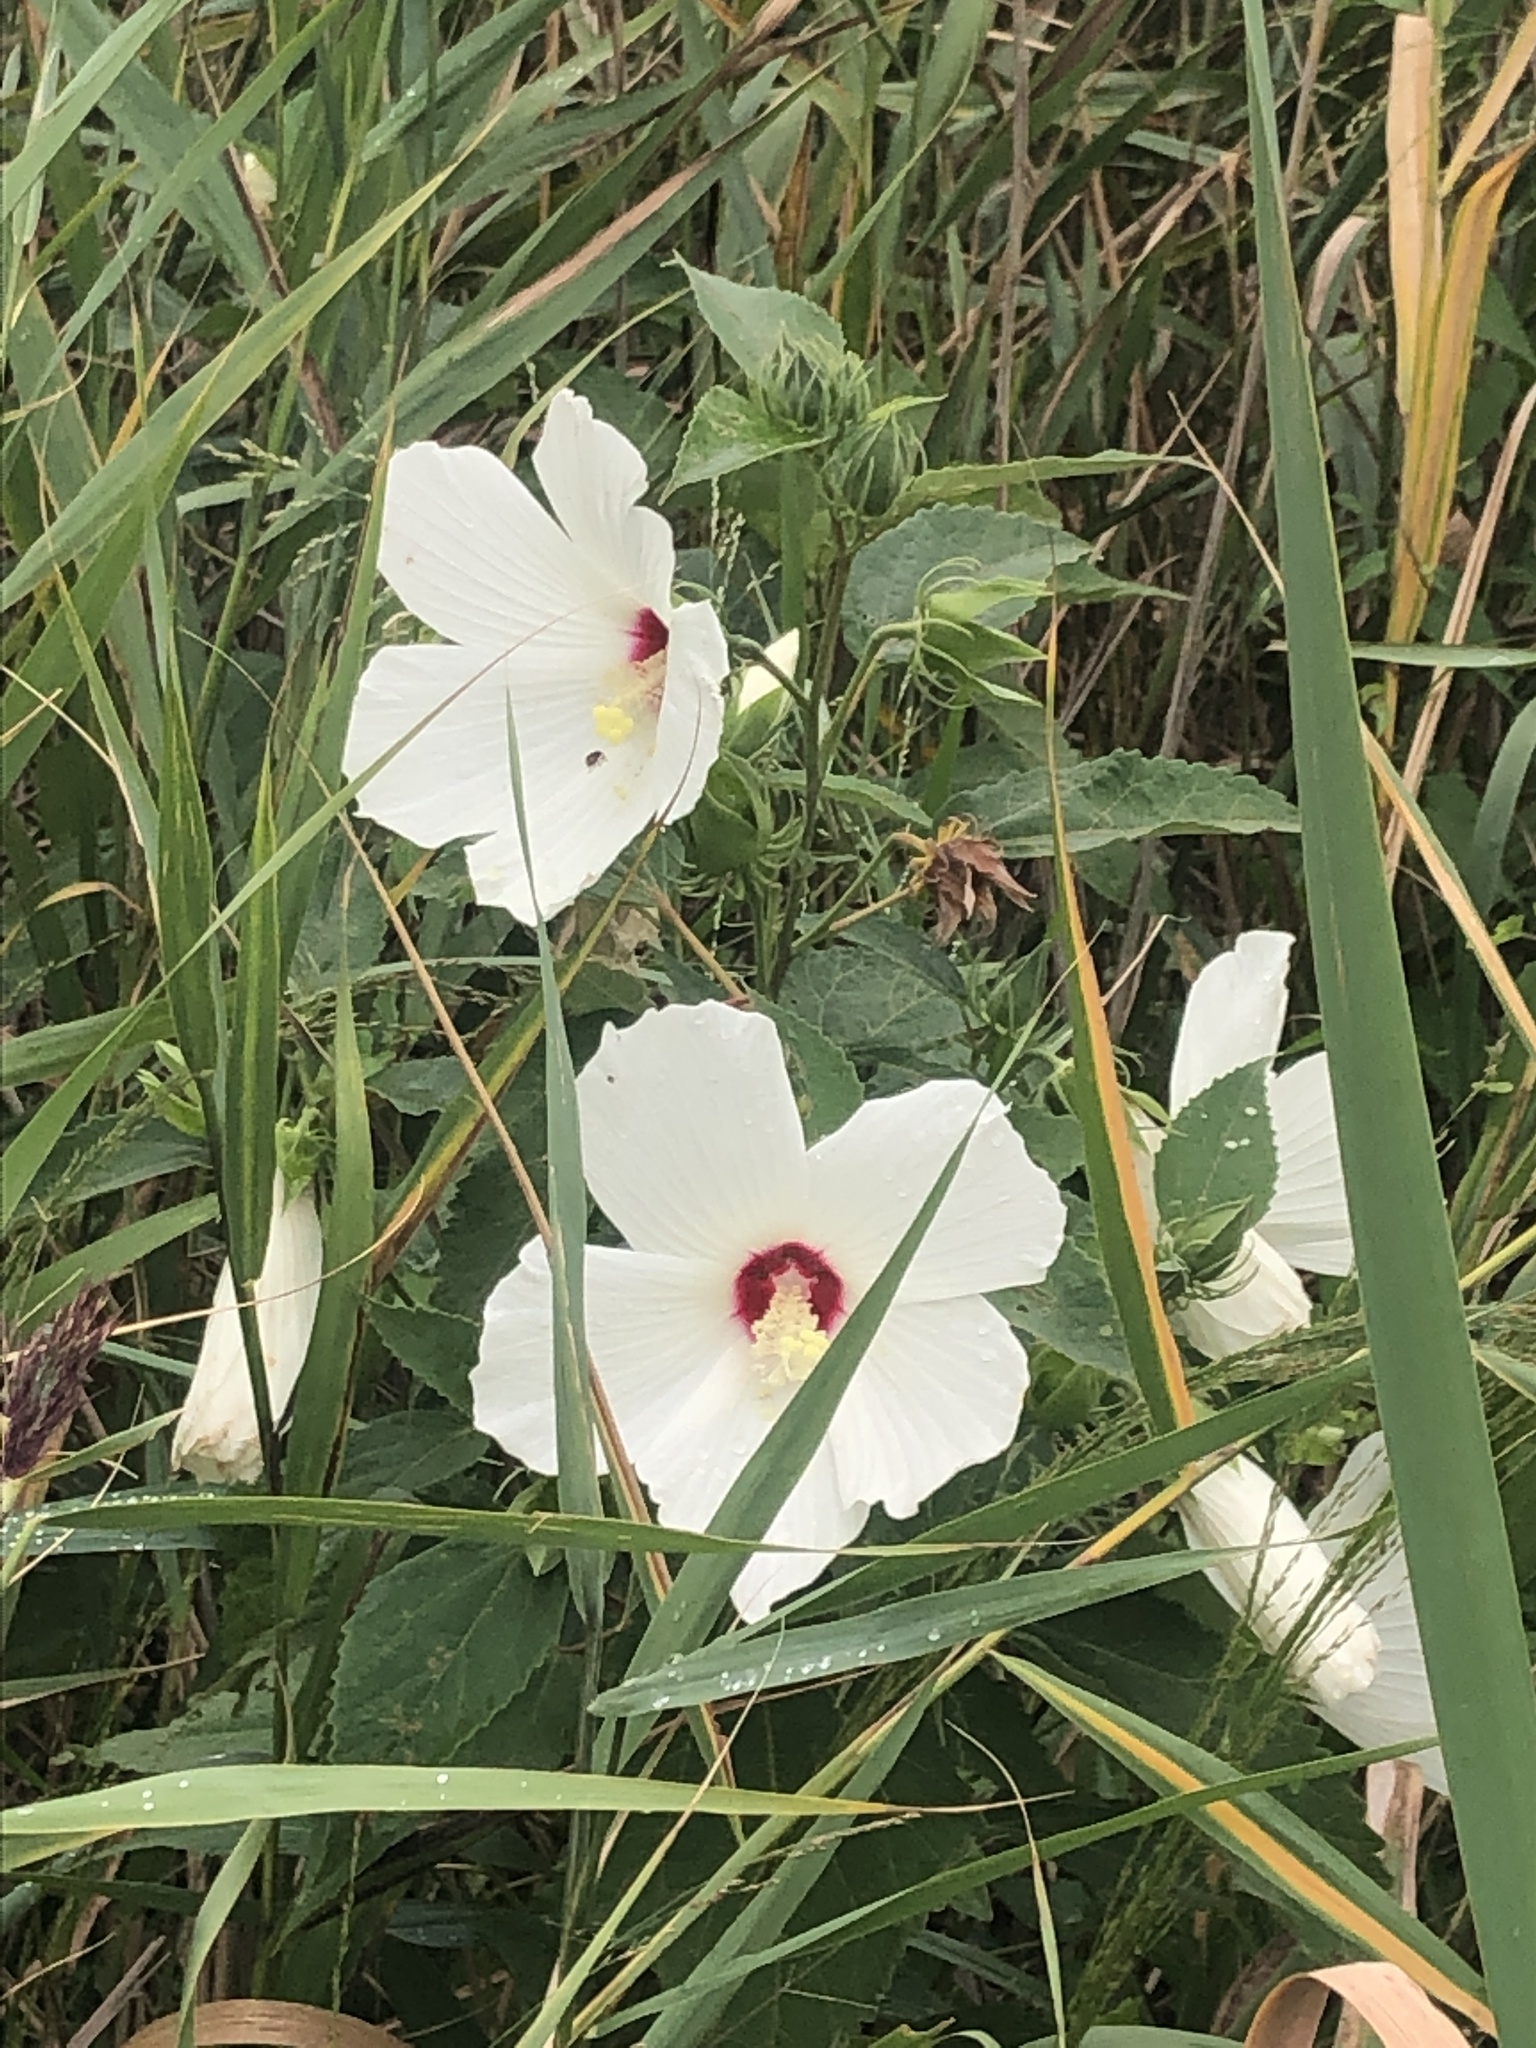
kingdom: Plantae
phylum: Tracheophyta
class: Magnoliopsida
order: Malvales
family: Malvaceae
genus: Hibiscus
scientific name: Hibiscus moscheutos
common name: Common rose-mallow
